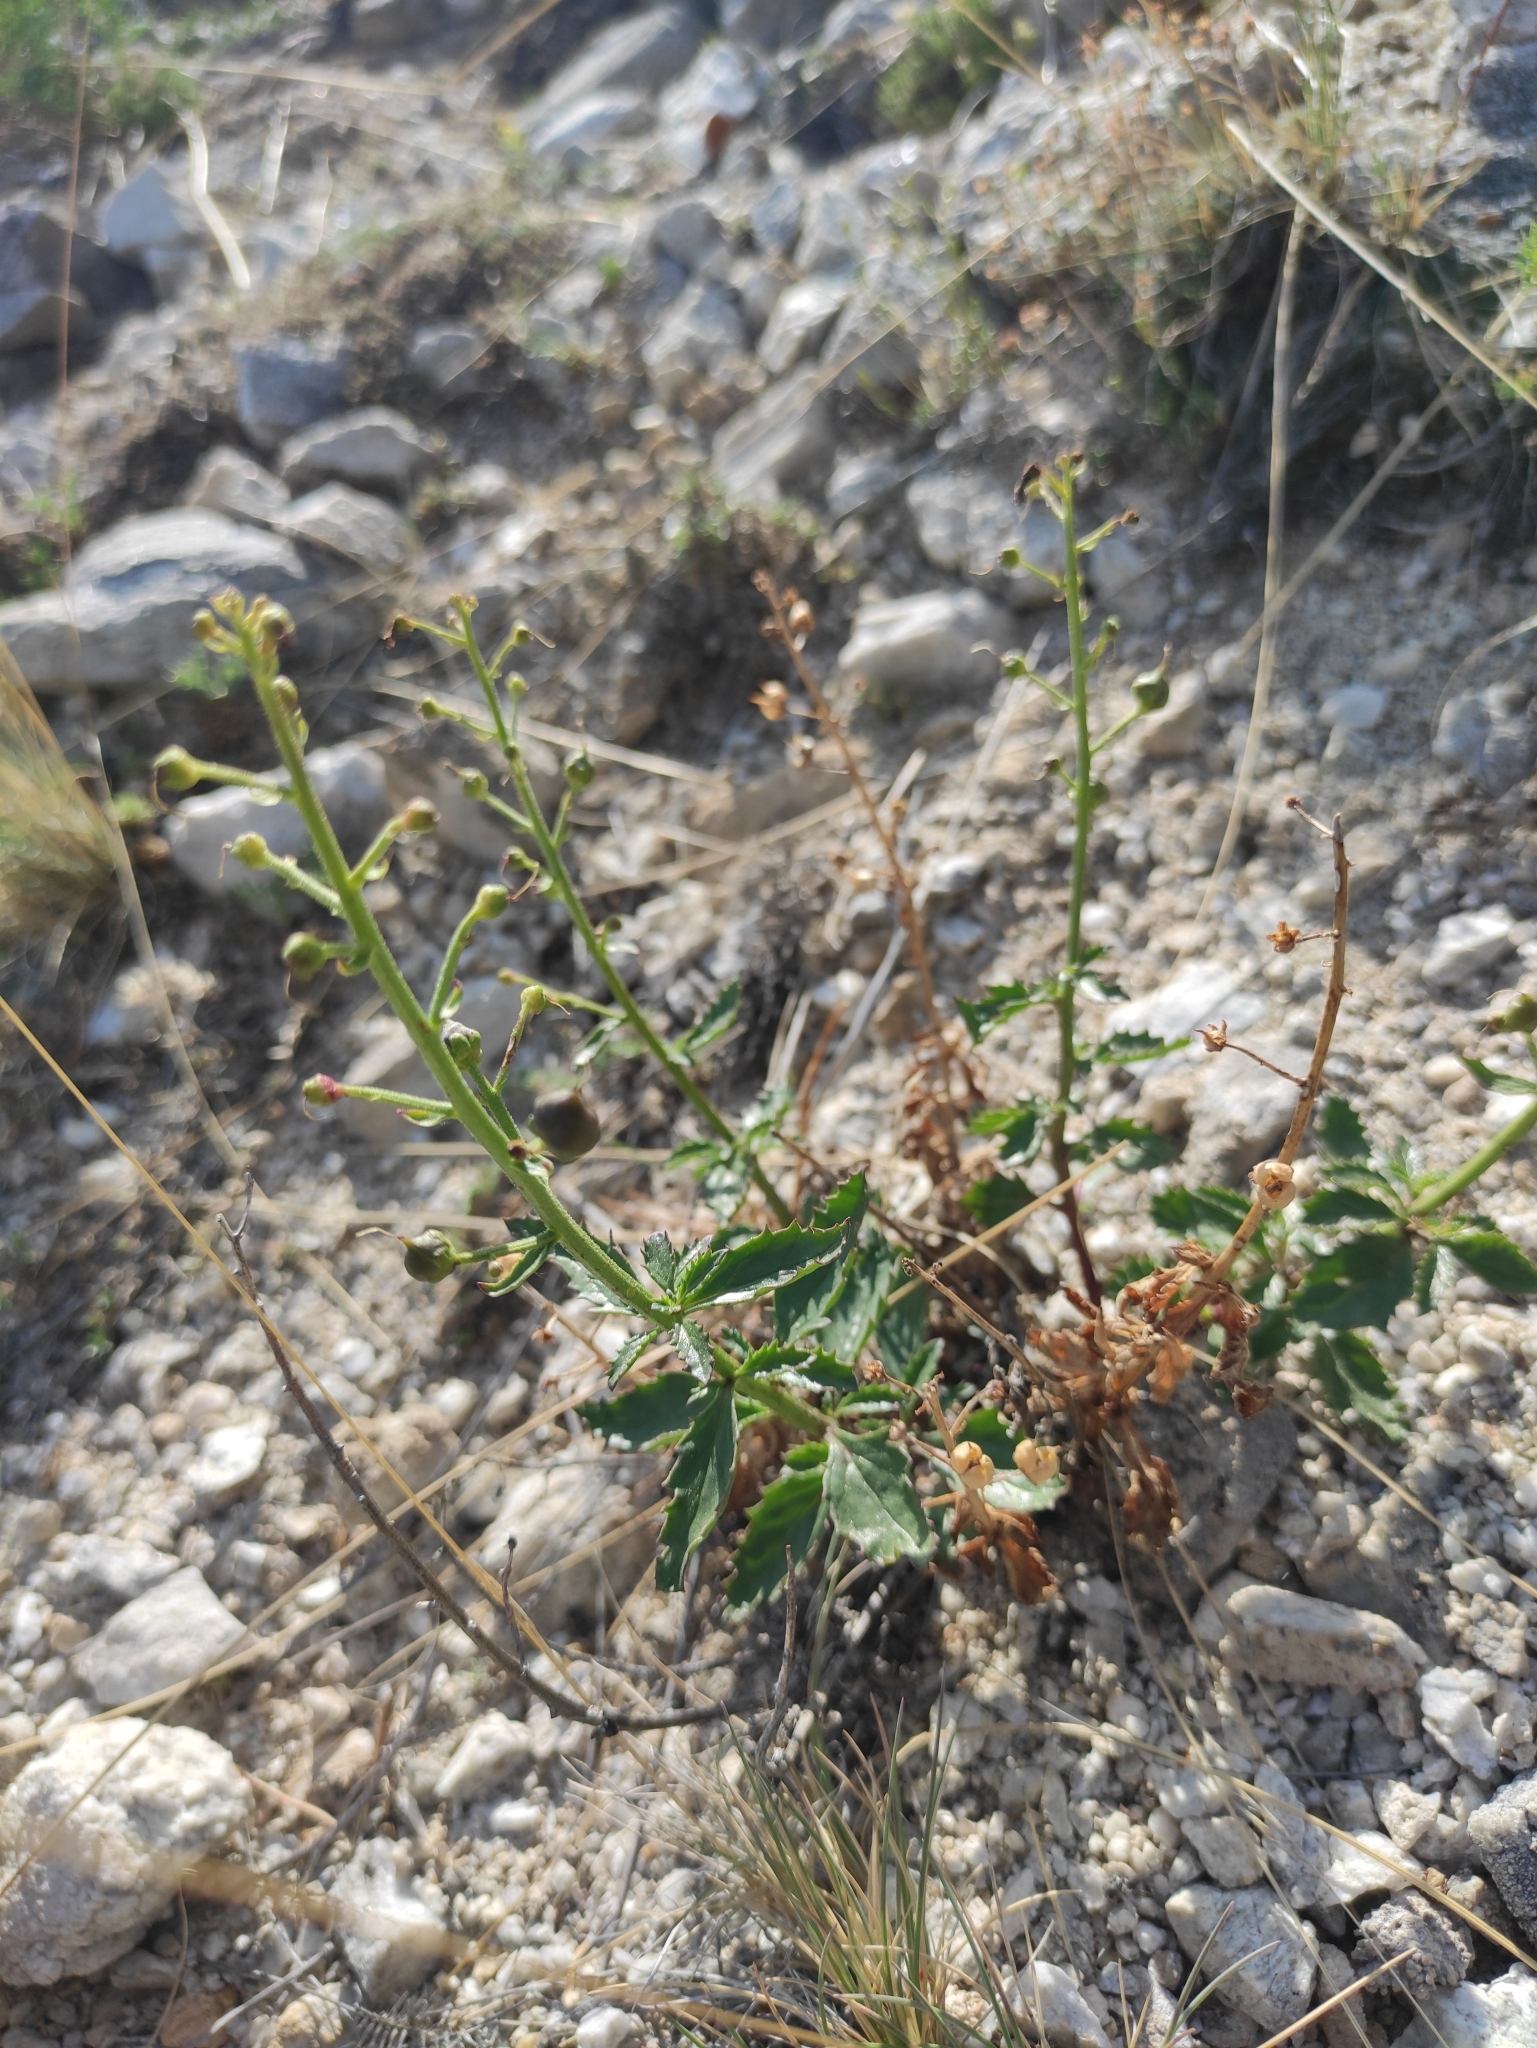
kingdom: Plantae
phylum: Tracheophyta
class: Magnoliopsida
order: Lamiales
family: Scrophulariaceae
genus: Scrophularia
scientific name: Scrophularia incisa
